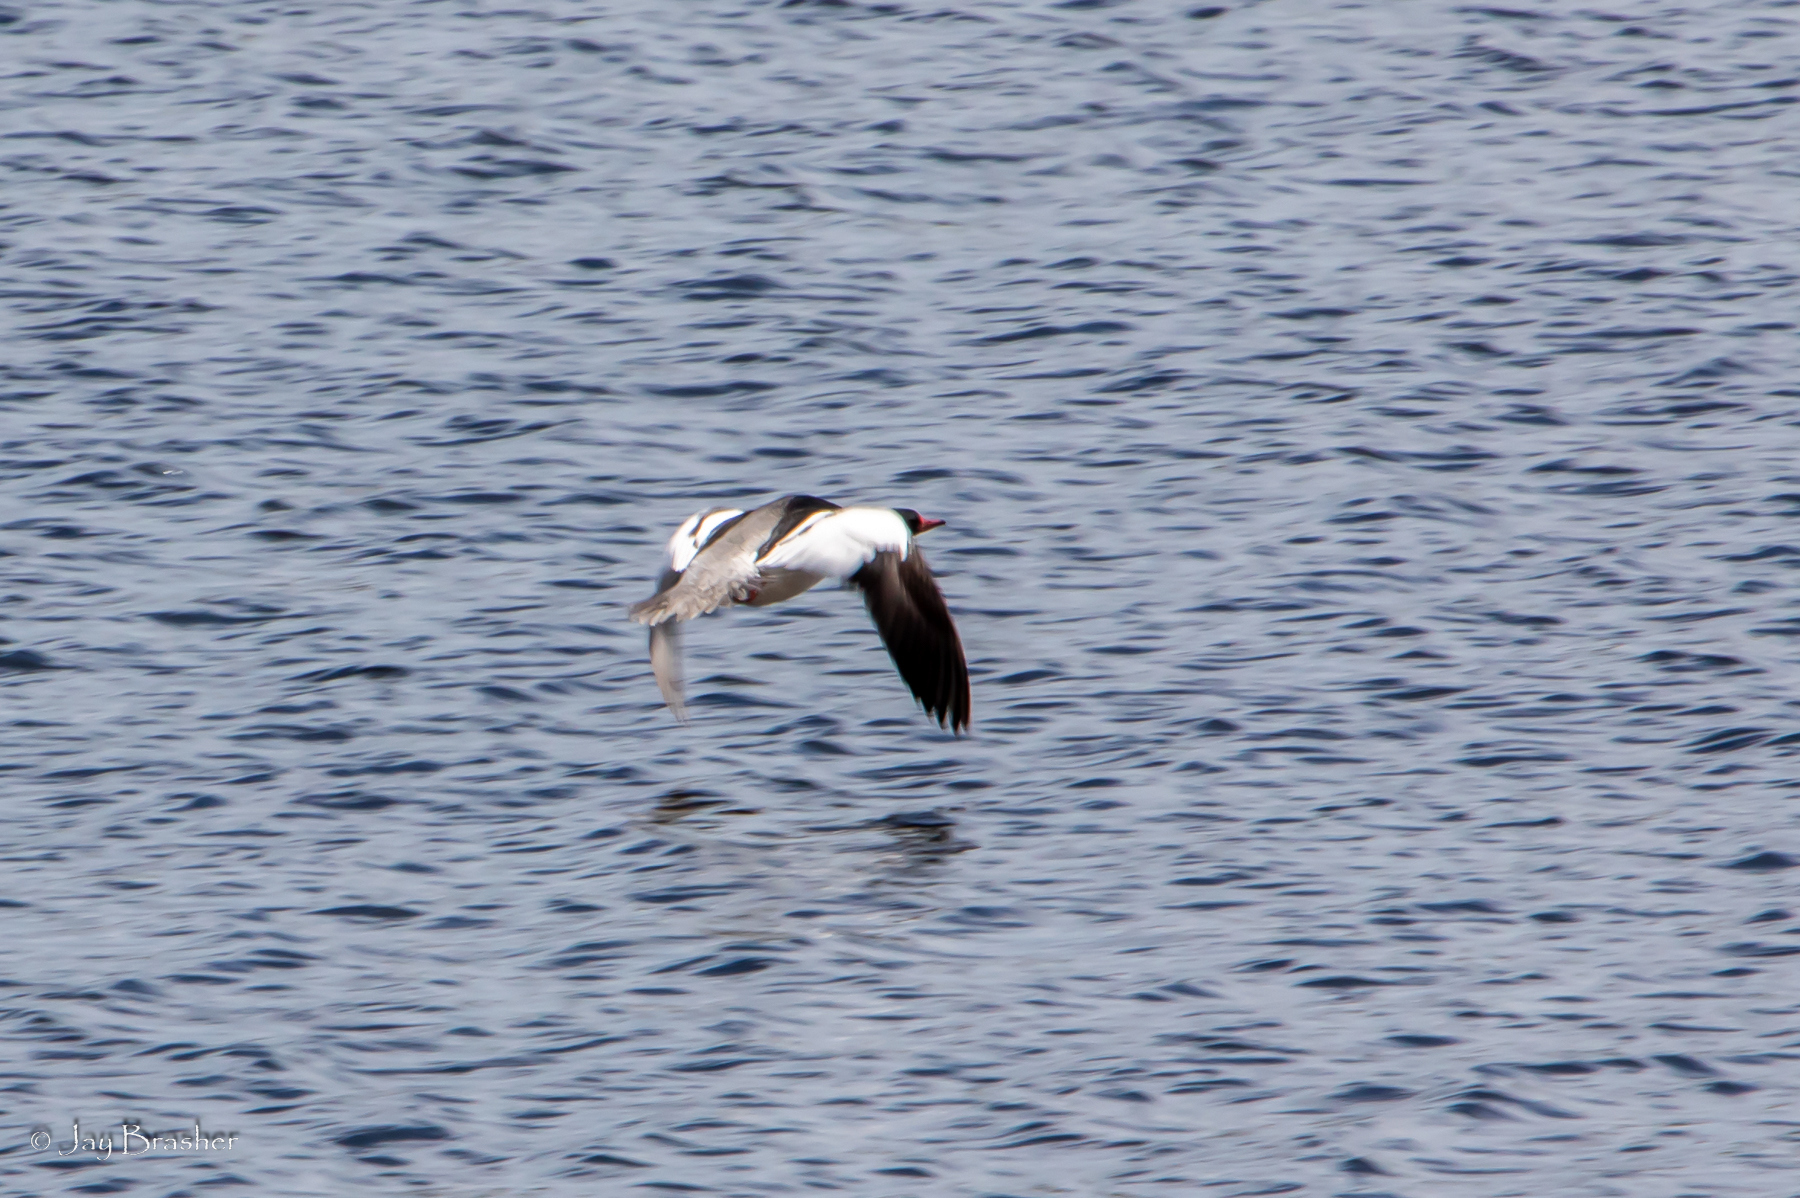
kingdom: Animalia
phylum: Chordata
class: Aves
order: Anseriformes
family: Anatidae
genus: Mergus
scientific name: Mergus merganser
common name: Common merganser
